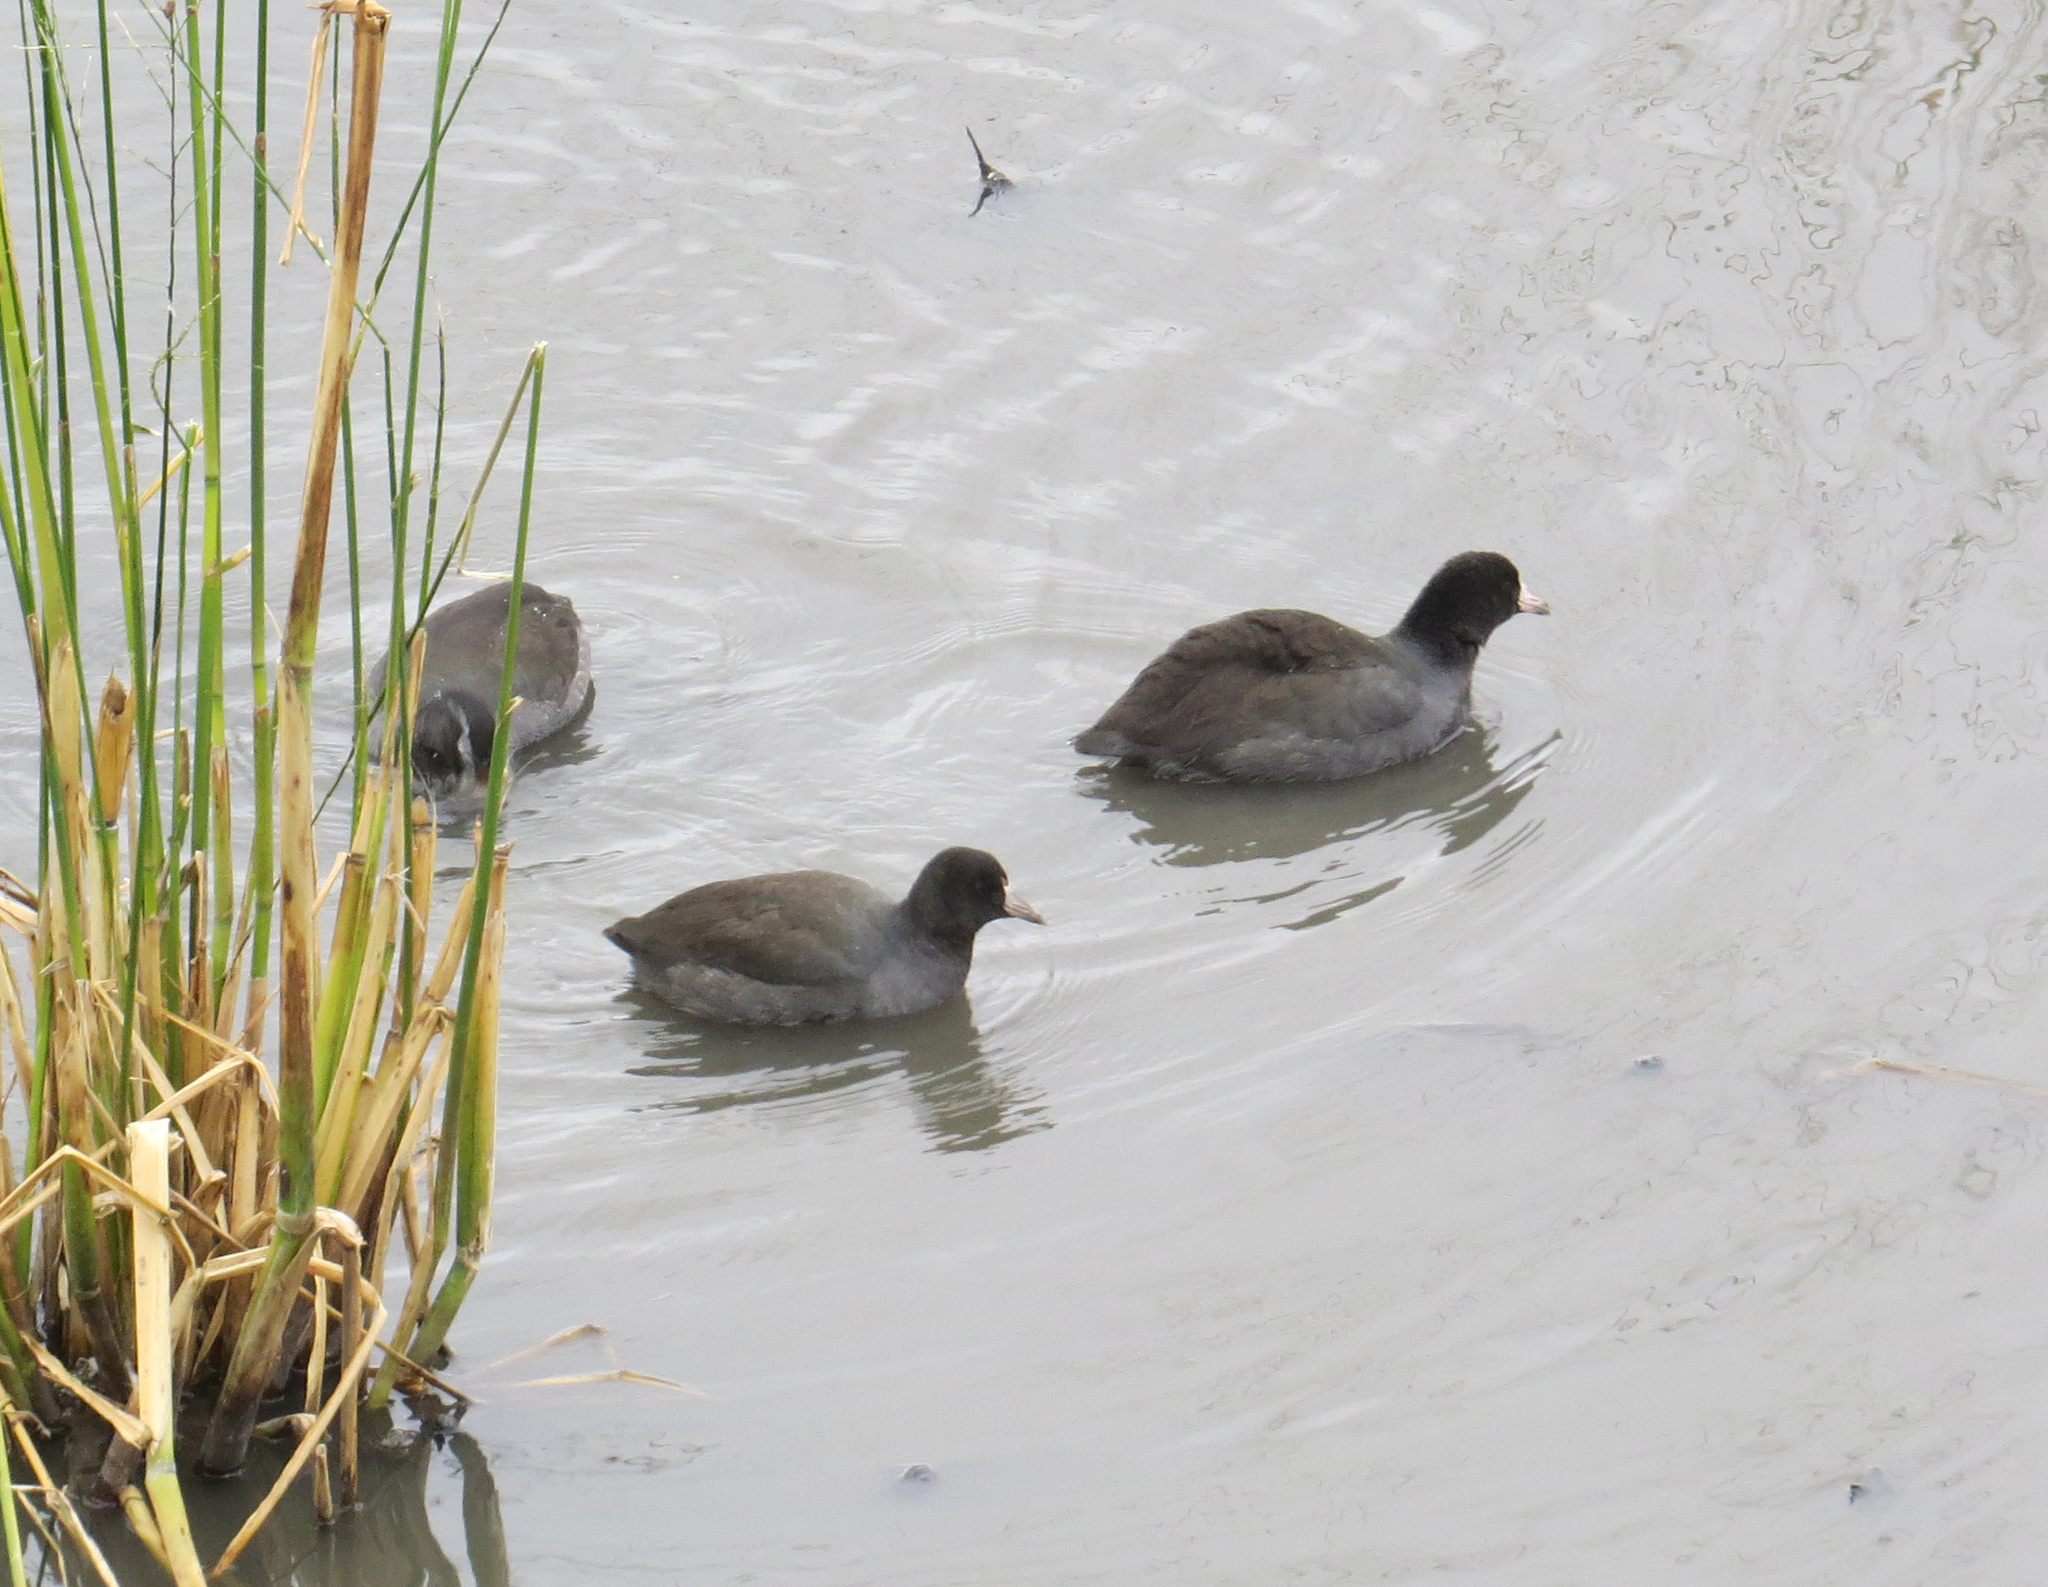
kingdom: Animalia
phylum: Chordata
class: Aves
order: Gruiformes
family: Rallidae
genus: Fulica
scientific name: Fulica americana
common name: American coot
